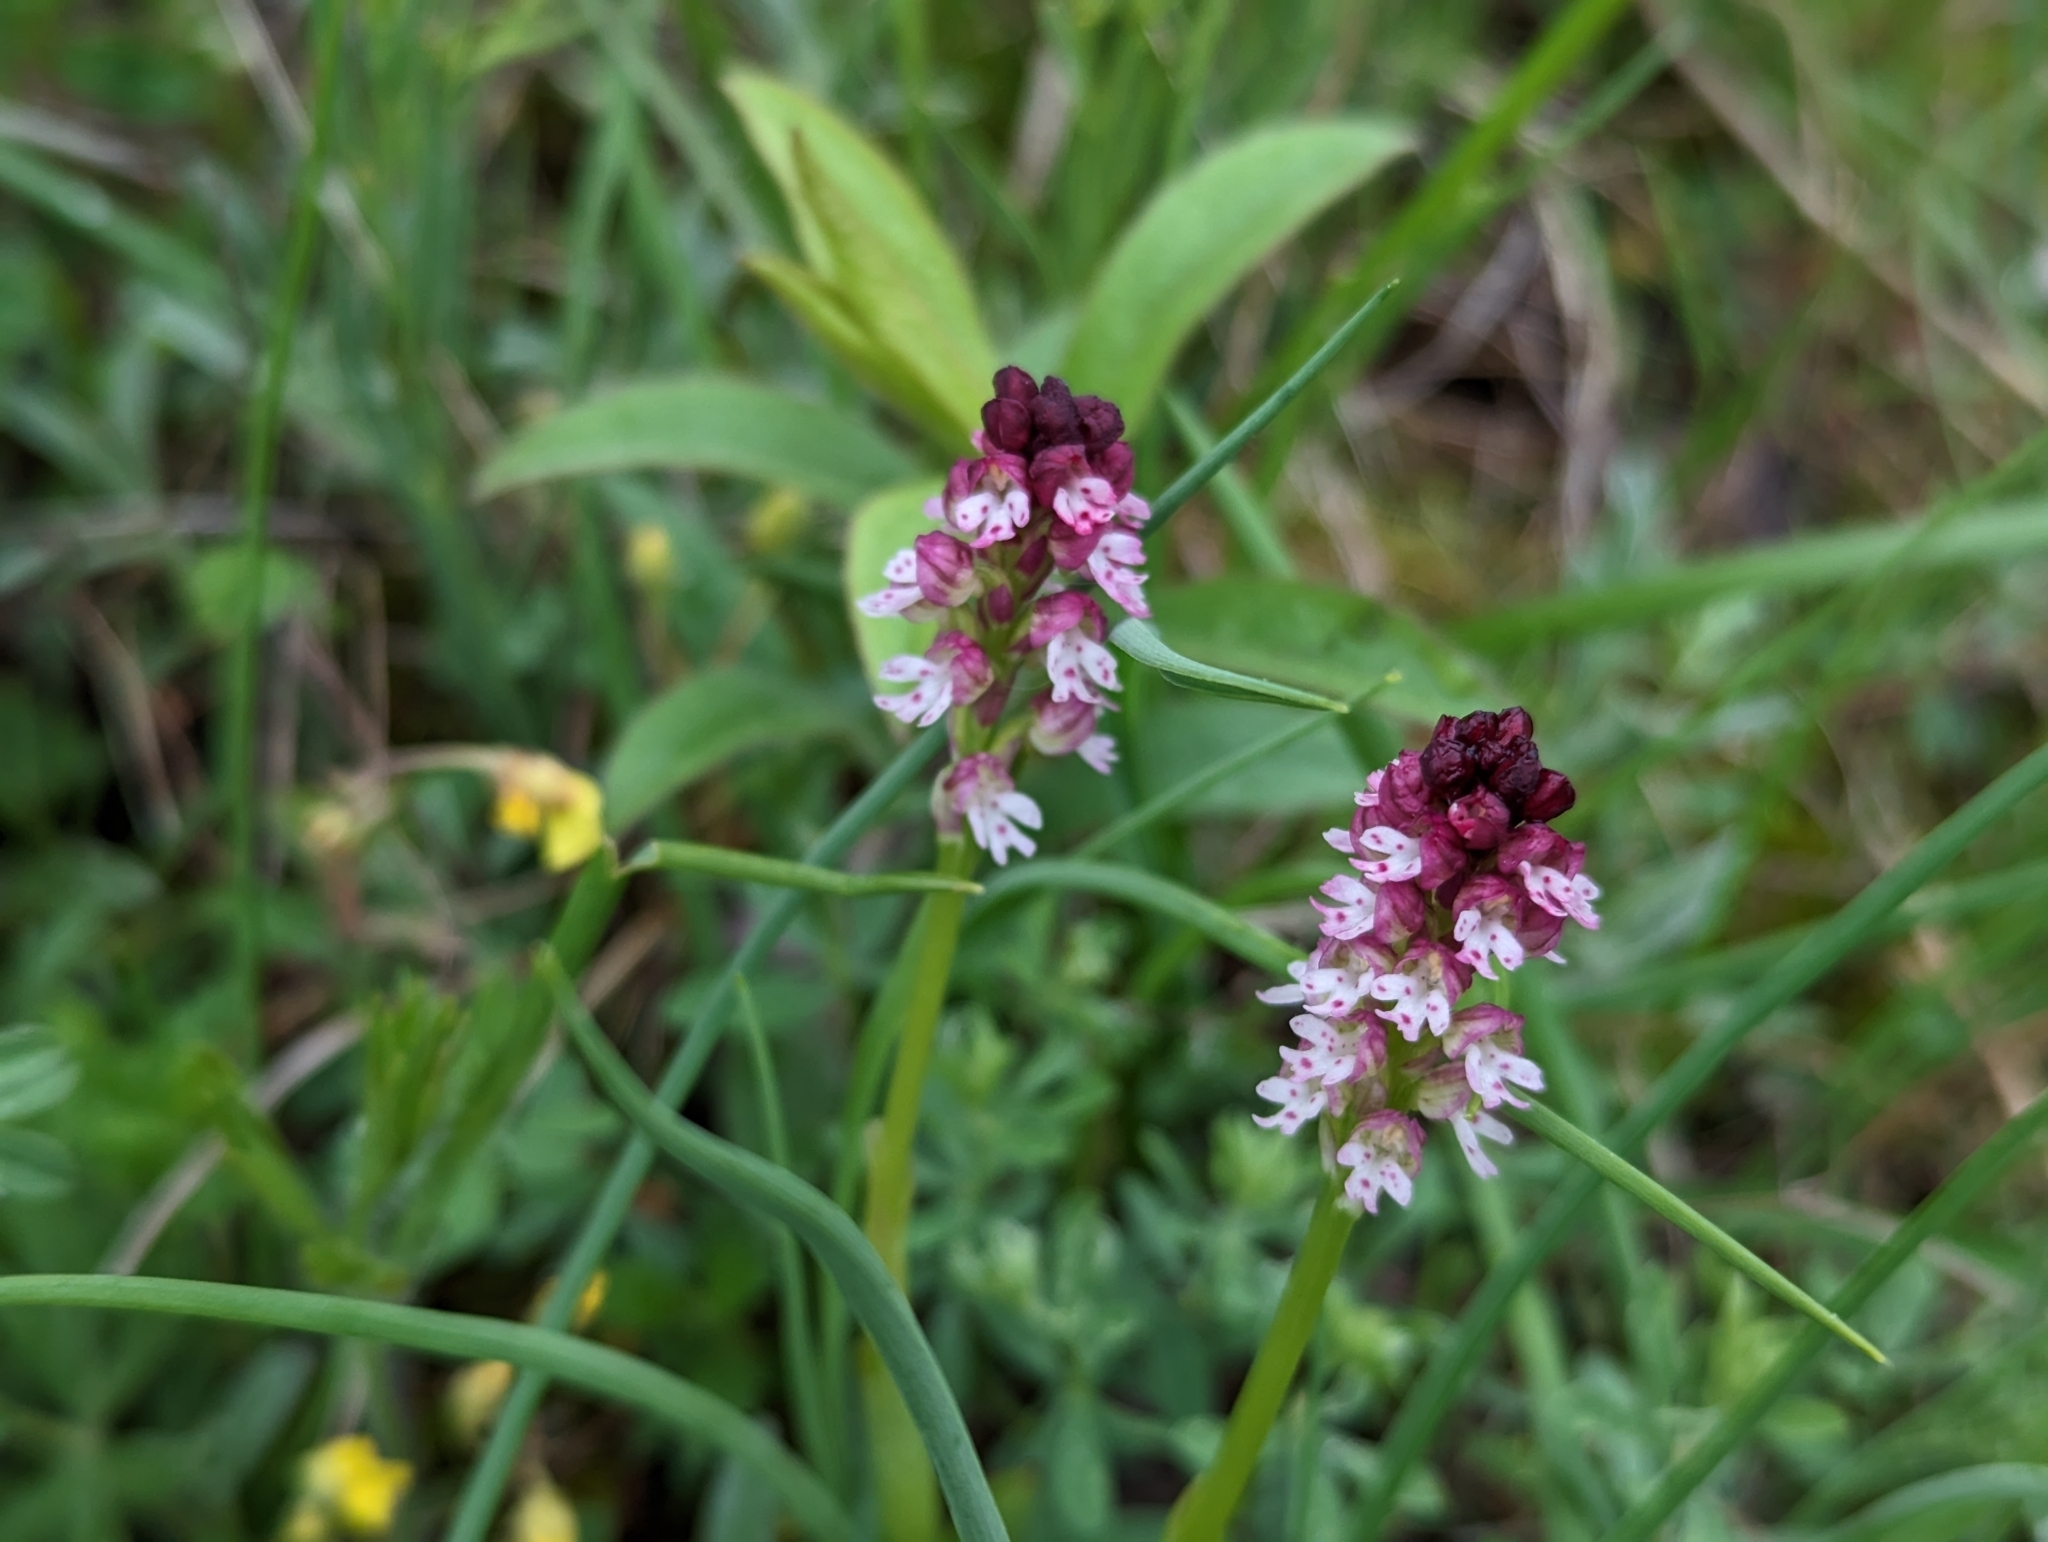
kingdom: Plantae
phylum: Tracheophyta
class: Liliopsida
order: Asparagales
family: Orchidaceae
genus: Neotinea
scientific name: Neotinea ustulata
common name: Burnt orchid
